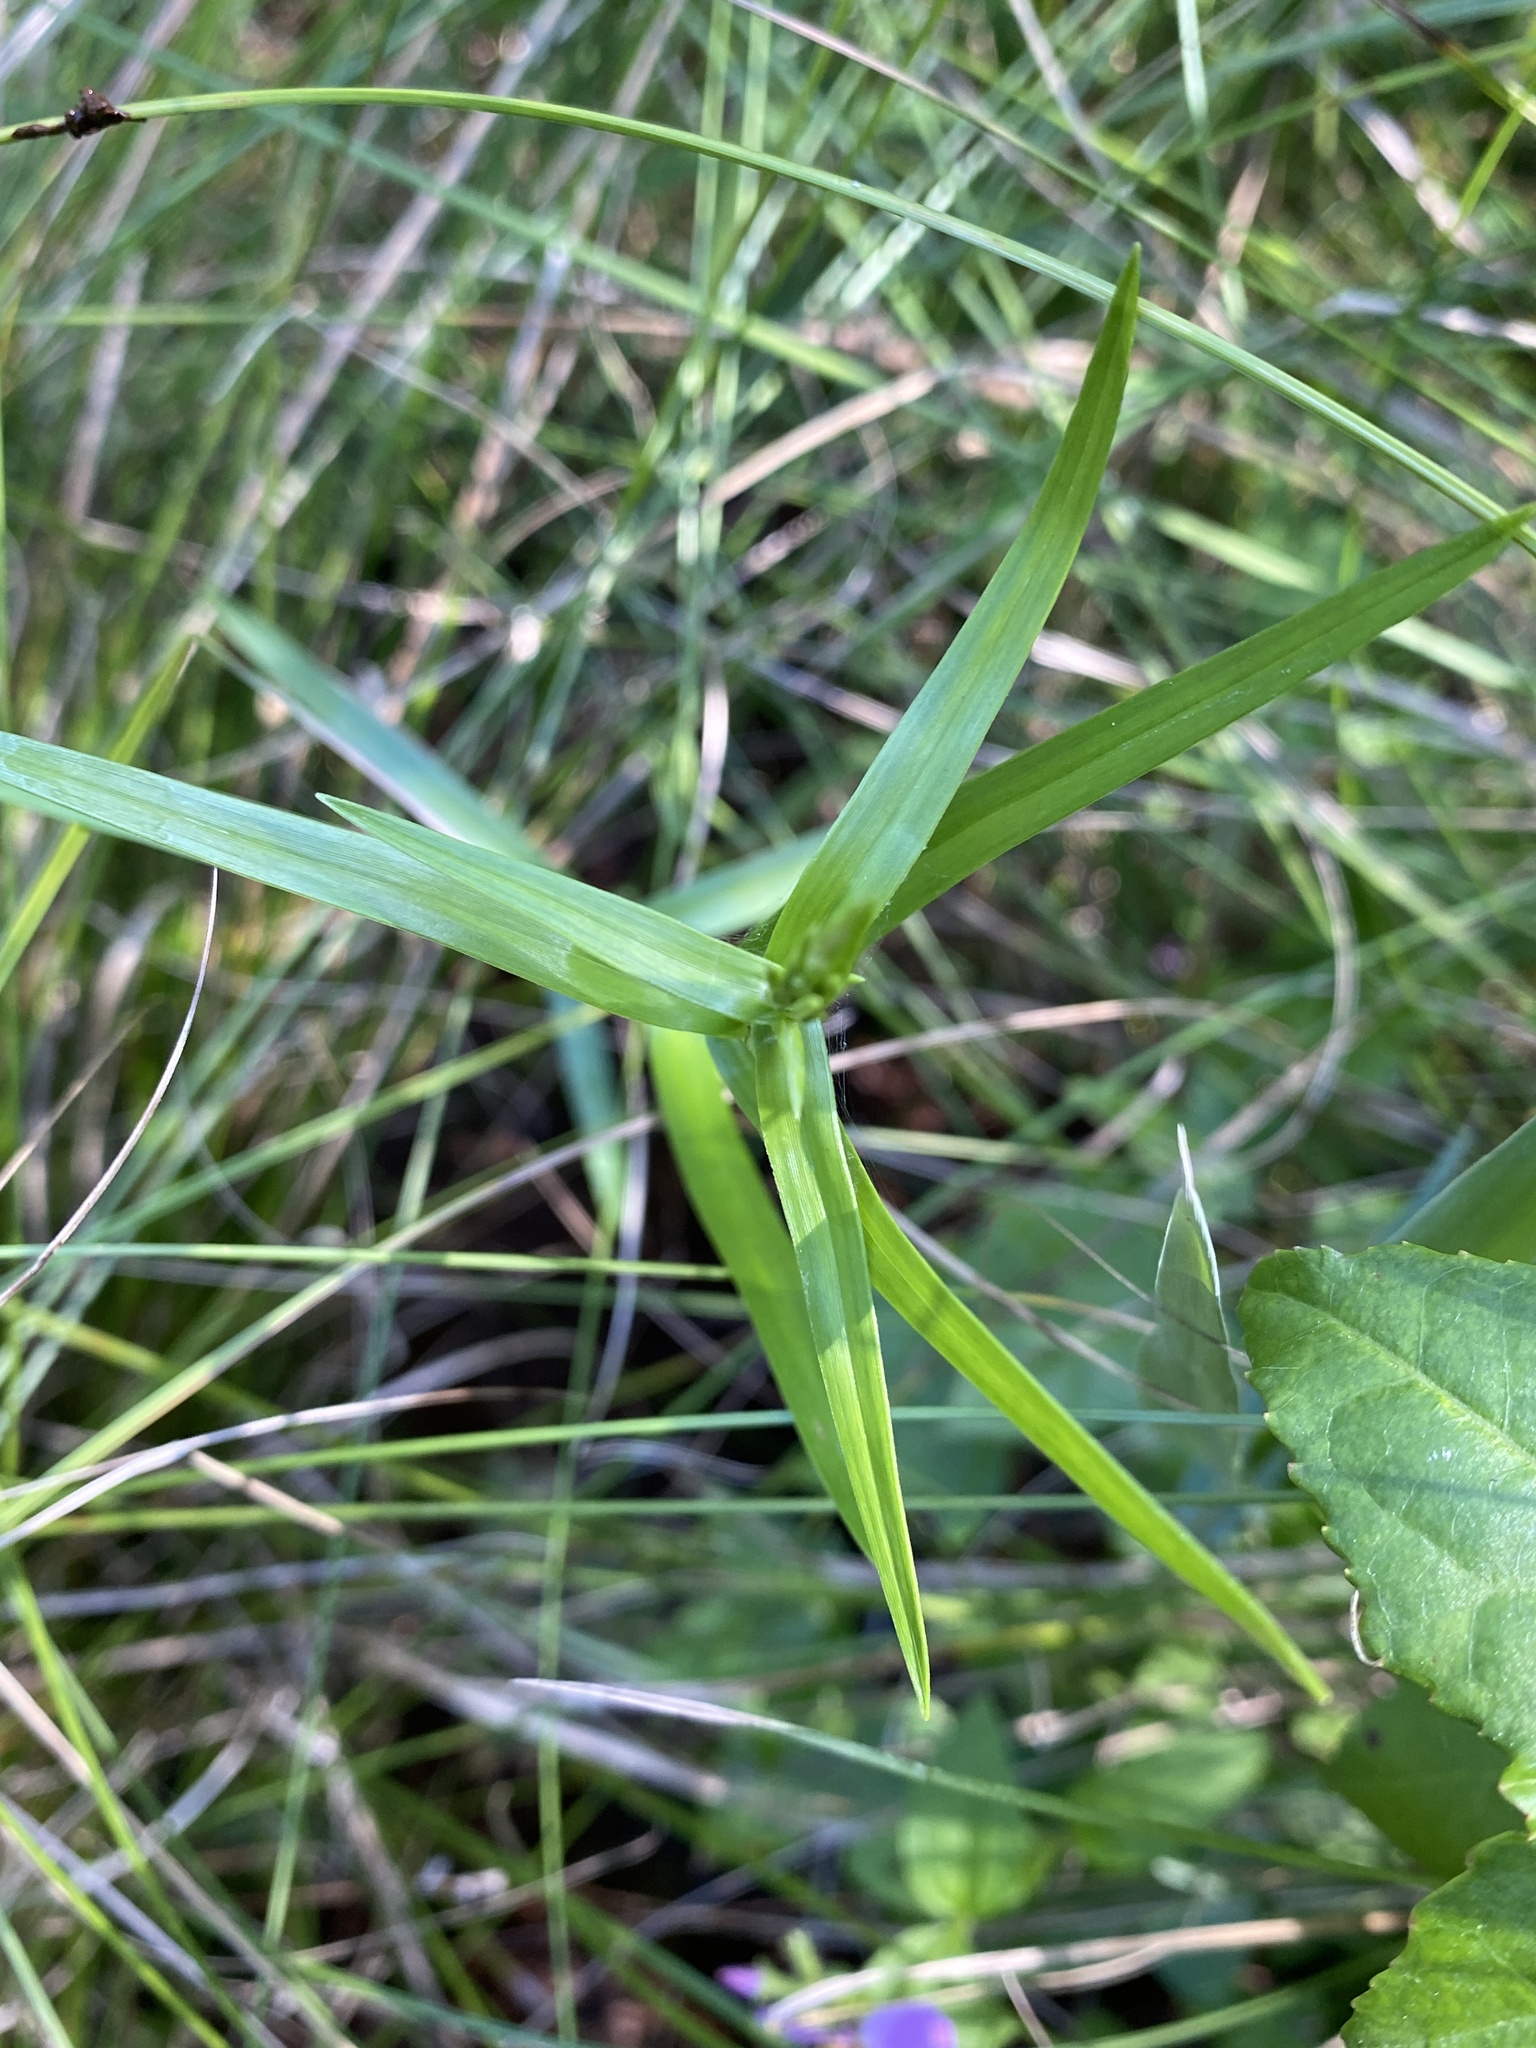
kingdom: Plantae
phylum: Tracheophyta
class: Liliopsida
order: Poales
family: Cyperaceae
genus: Dulichium
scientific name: Dulichium arundinaceum
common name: Three-way sedge
